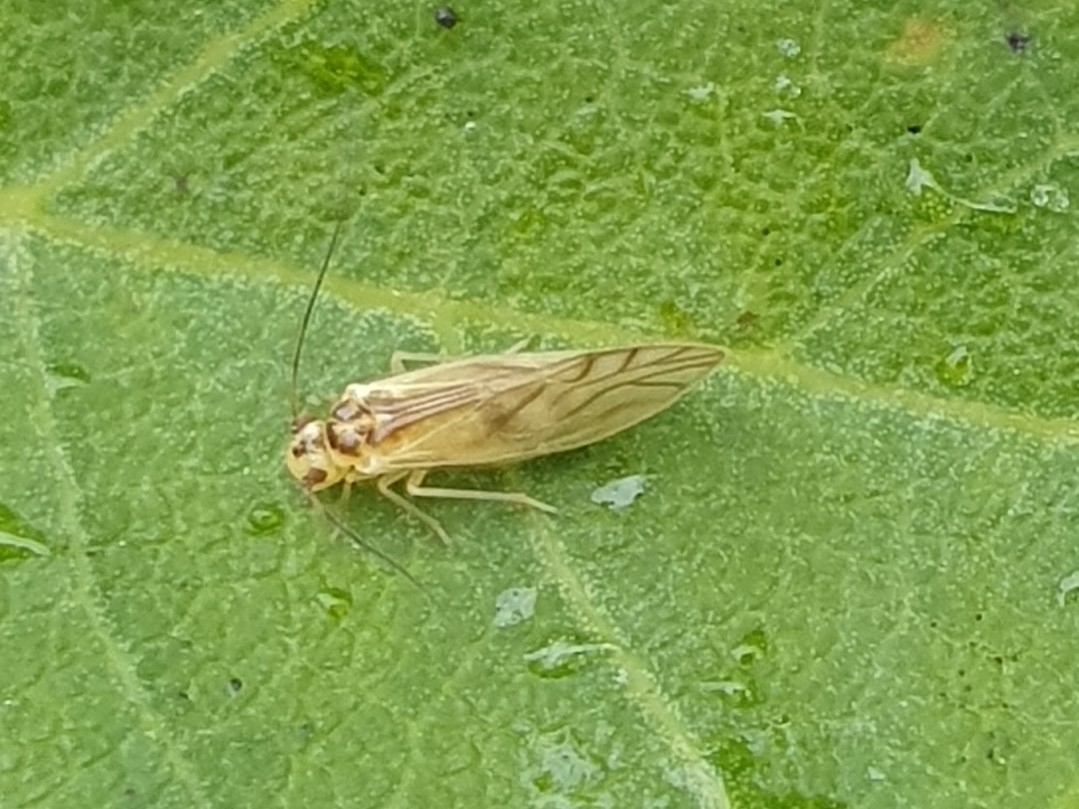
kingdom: Animalia
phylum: Arthropoda
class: Insecta
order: Psocodea
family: Caeciliusidae
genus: Valenzuela
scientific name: Valenzuela flavidus
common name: Yellow barklouse
